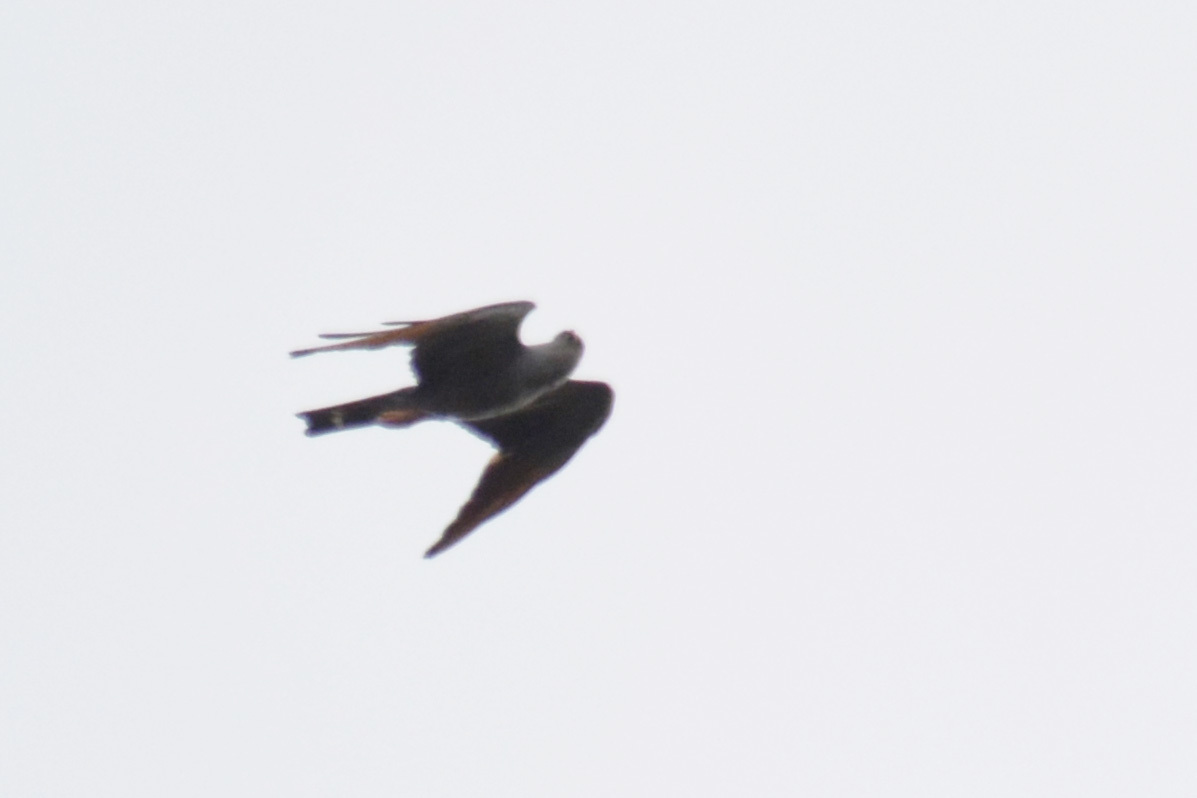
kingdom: Animalia
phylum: Chordata
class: Aves
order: Accipitriformes
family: Accipitridae
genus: Ictinia
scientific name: Ictinia plumbea
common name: Plumbeous kite
